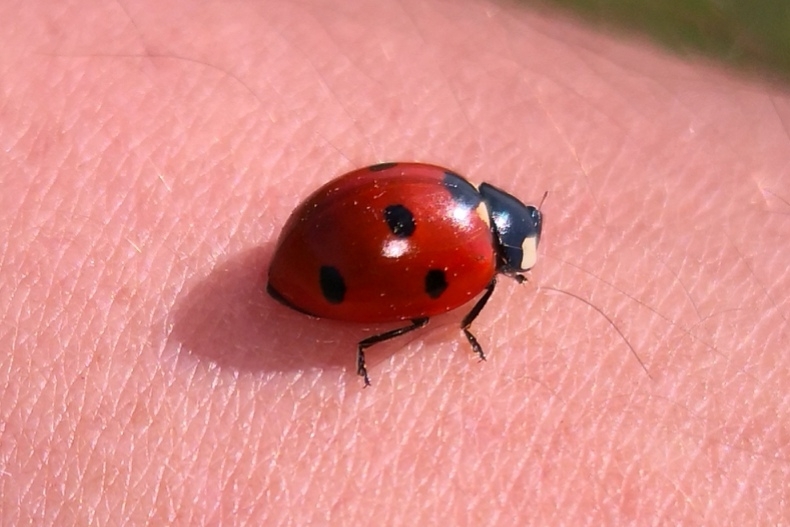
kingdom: Animalia
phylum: Arthropoda
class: Insecta
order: Coleoptera
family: Coccinellidae
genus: Coccinella
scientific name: Coccinella septempunctata
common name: Sevenspotted lady beetle
